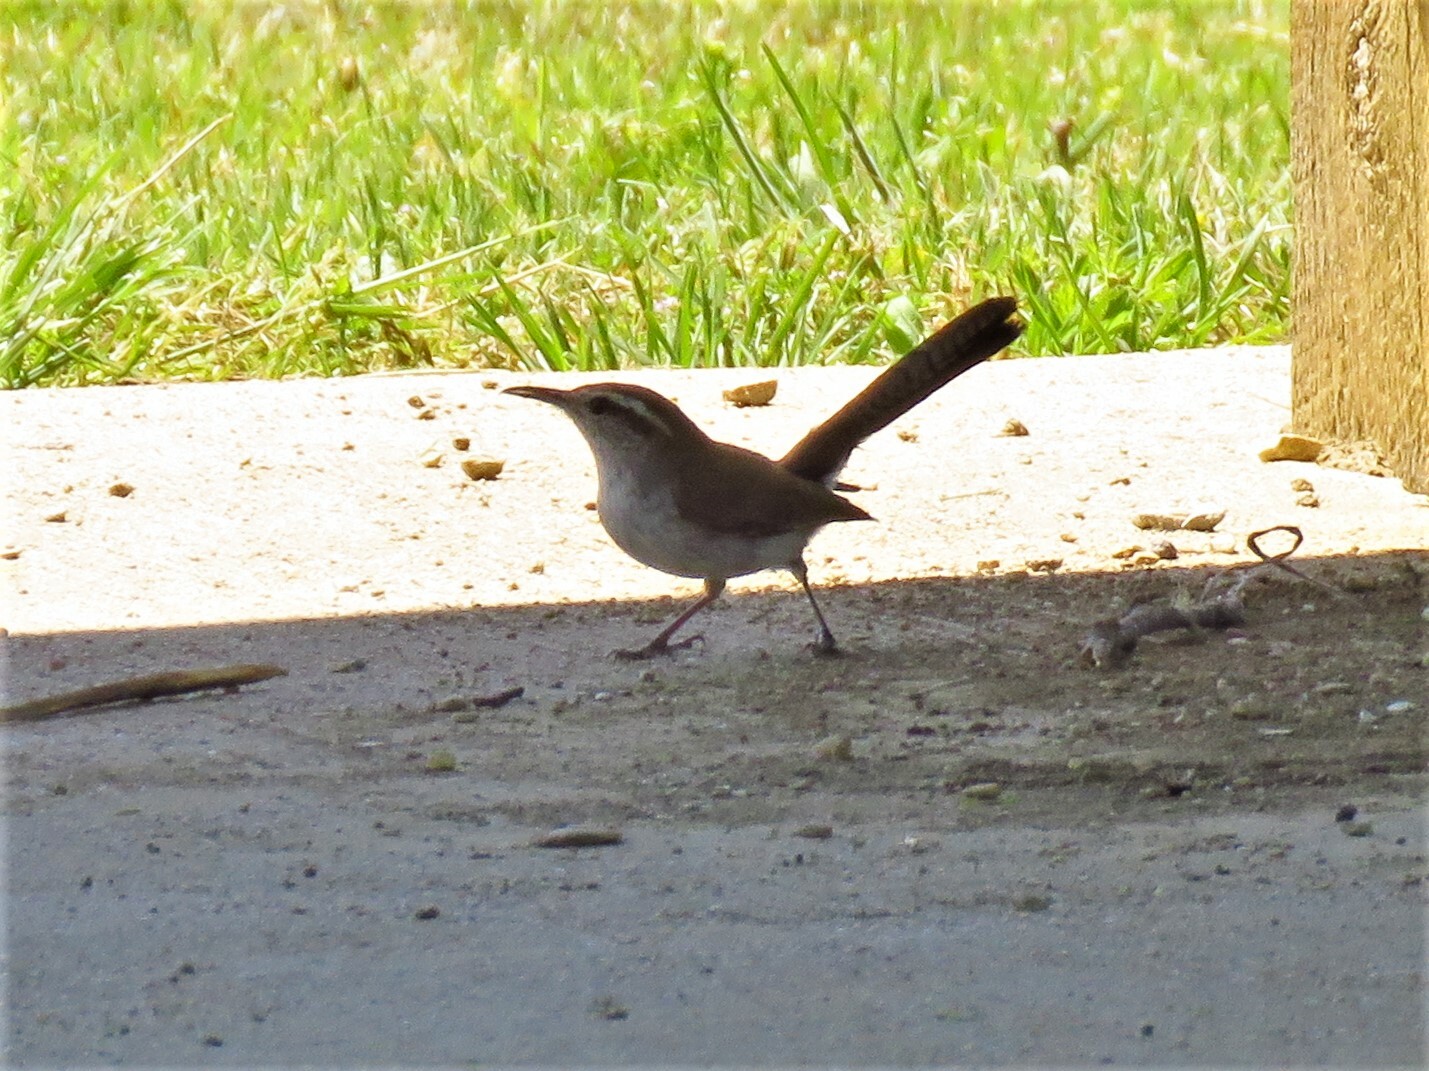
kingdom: Animalia
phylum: Chordata
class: Aves
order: Passeriformes
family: Troglodytidae
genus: Thryomanes
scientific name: Thryomanes bewickii
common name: Bewick's wren
